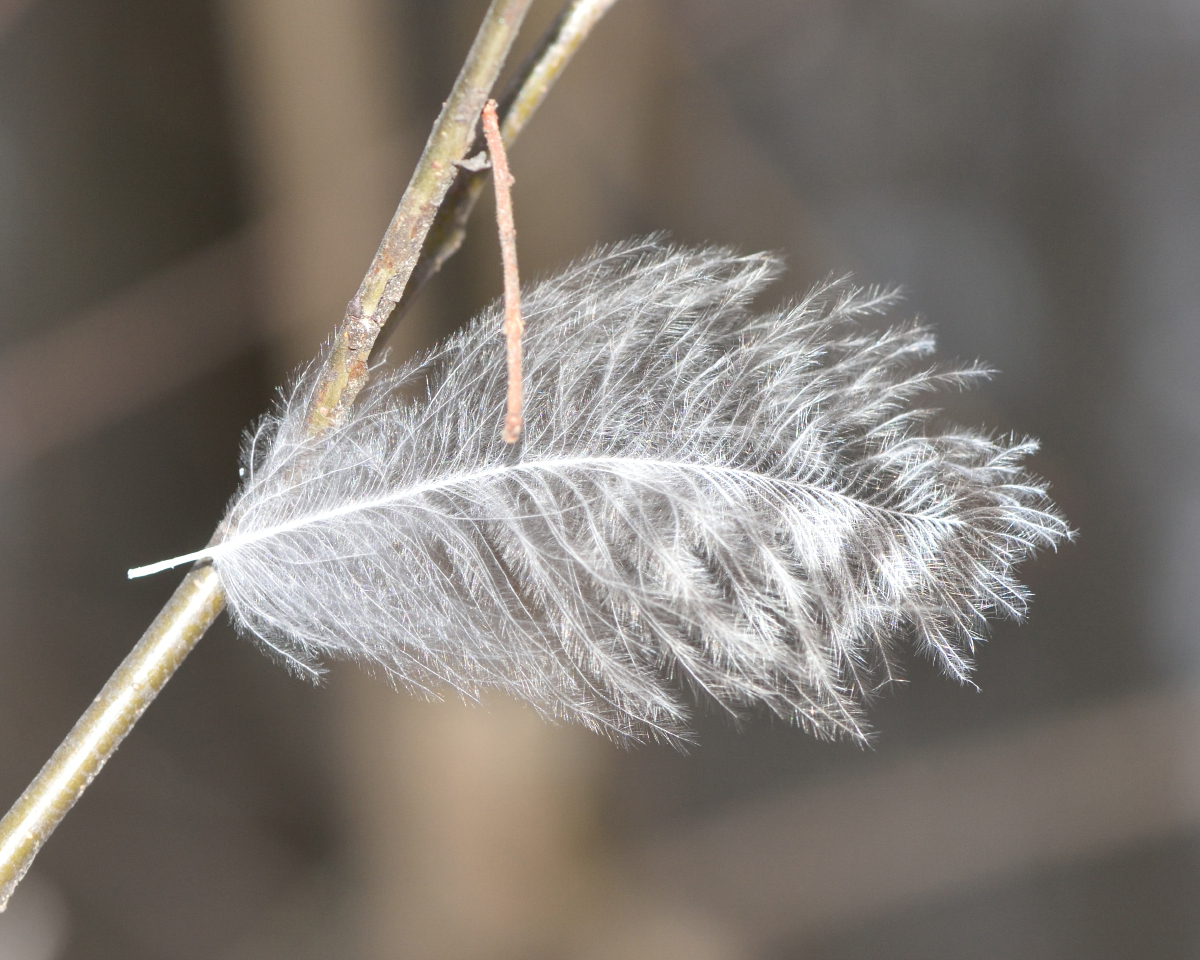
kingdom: Animalia
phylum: Chordata
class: Aves
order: Strigiformes
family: Strigidae
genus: Strix
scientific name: Strix aluco
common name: Tawny owl
